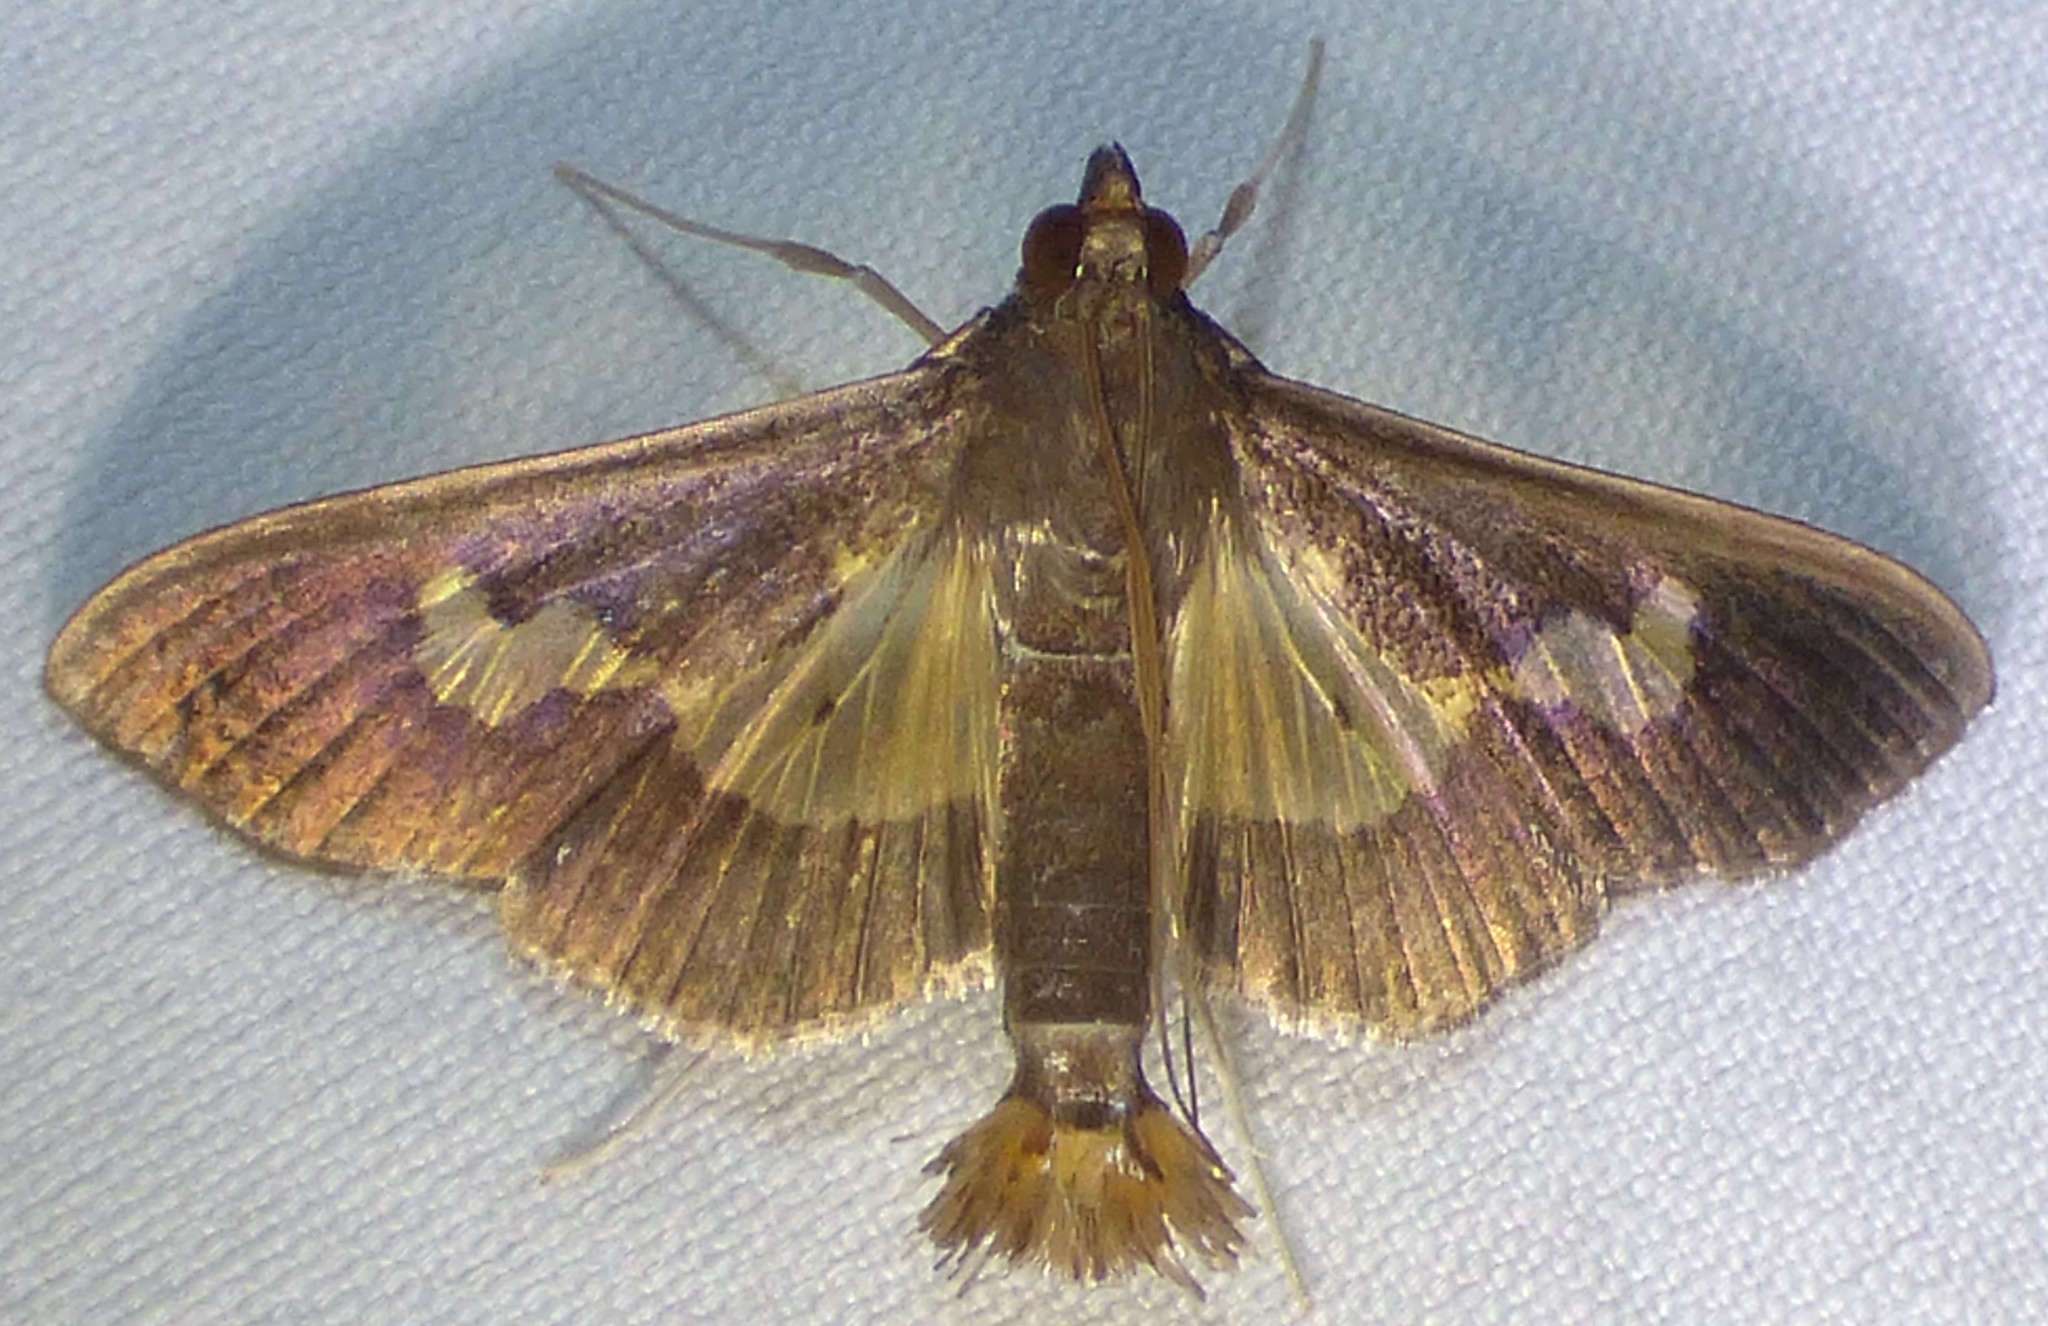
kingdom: Animalia
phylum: Arthropoda
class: Insecta
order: Lepidoptera
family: Crambidae
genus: Cryptographis
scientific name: Cryptographis nitidalis
